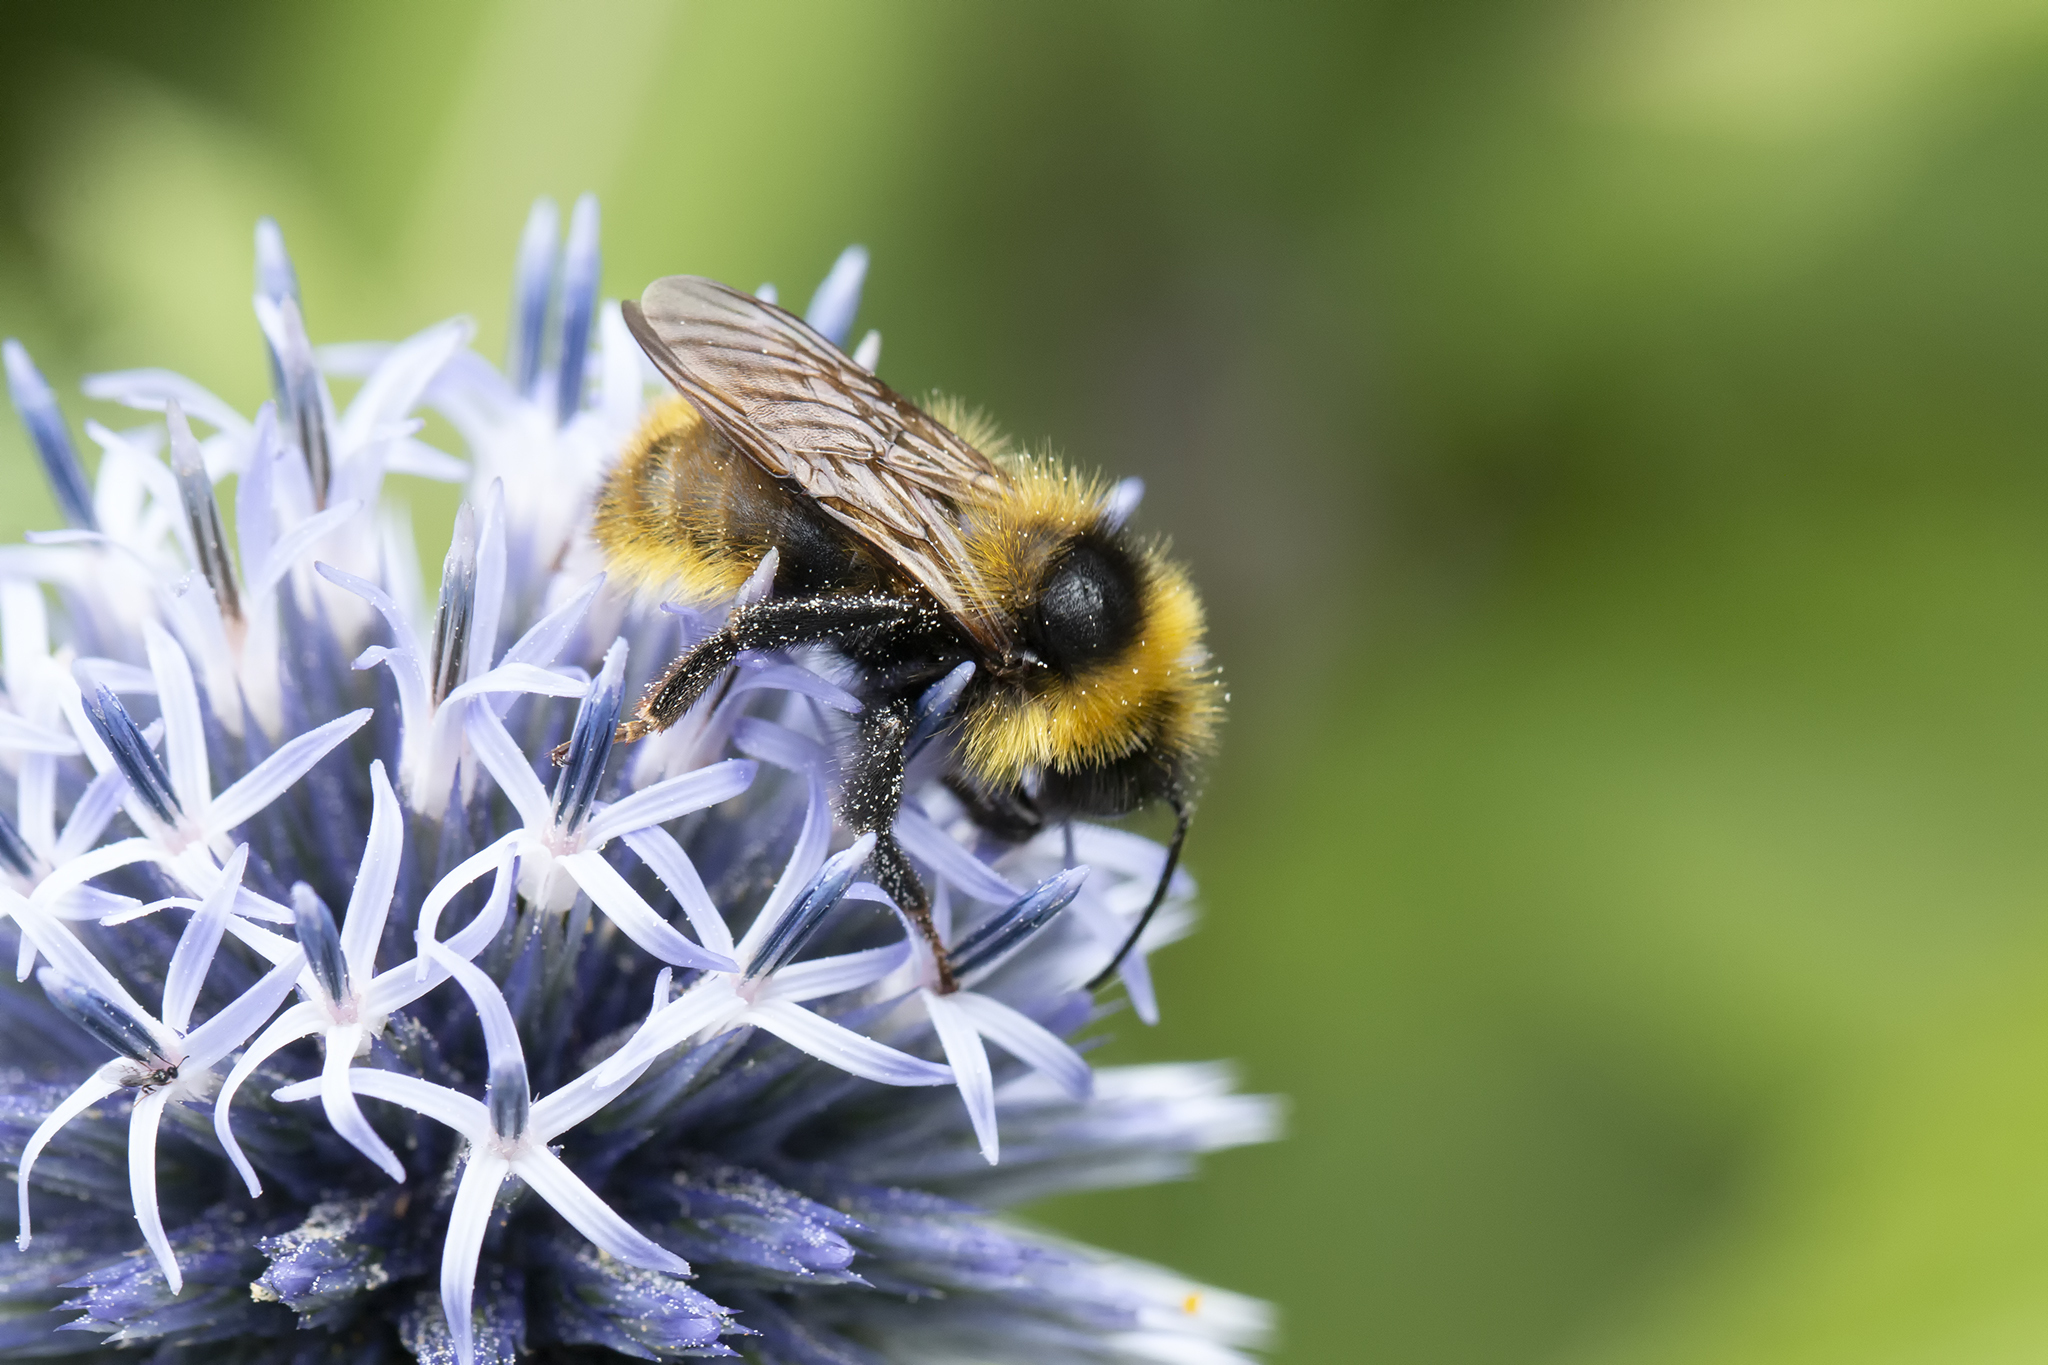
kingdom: Animalia
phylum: Arthropoda
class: Insecta
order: Hymenoptera
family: Apidae
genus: Bombus
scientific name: Bombus campestris
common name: Field cuckoo-bee
